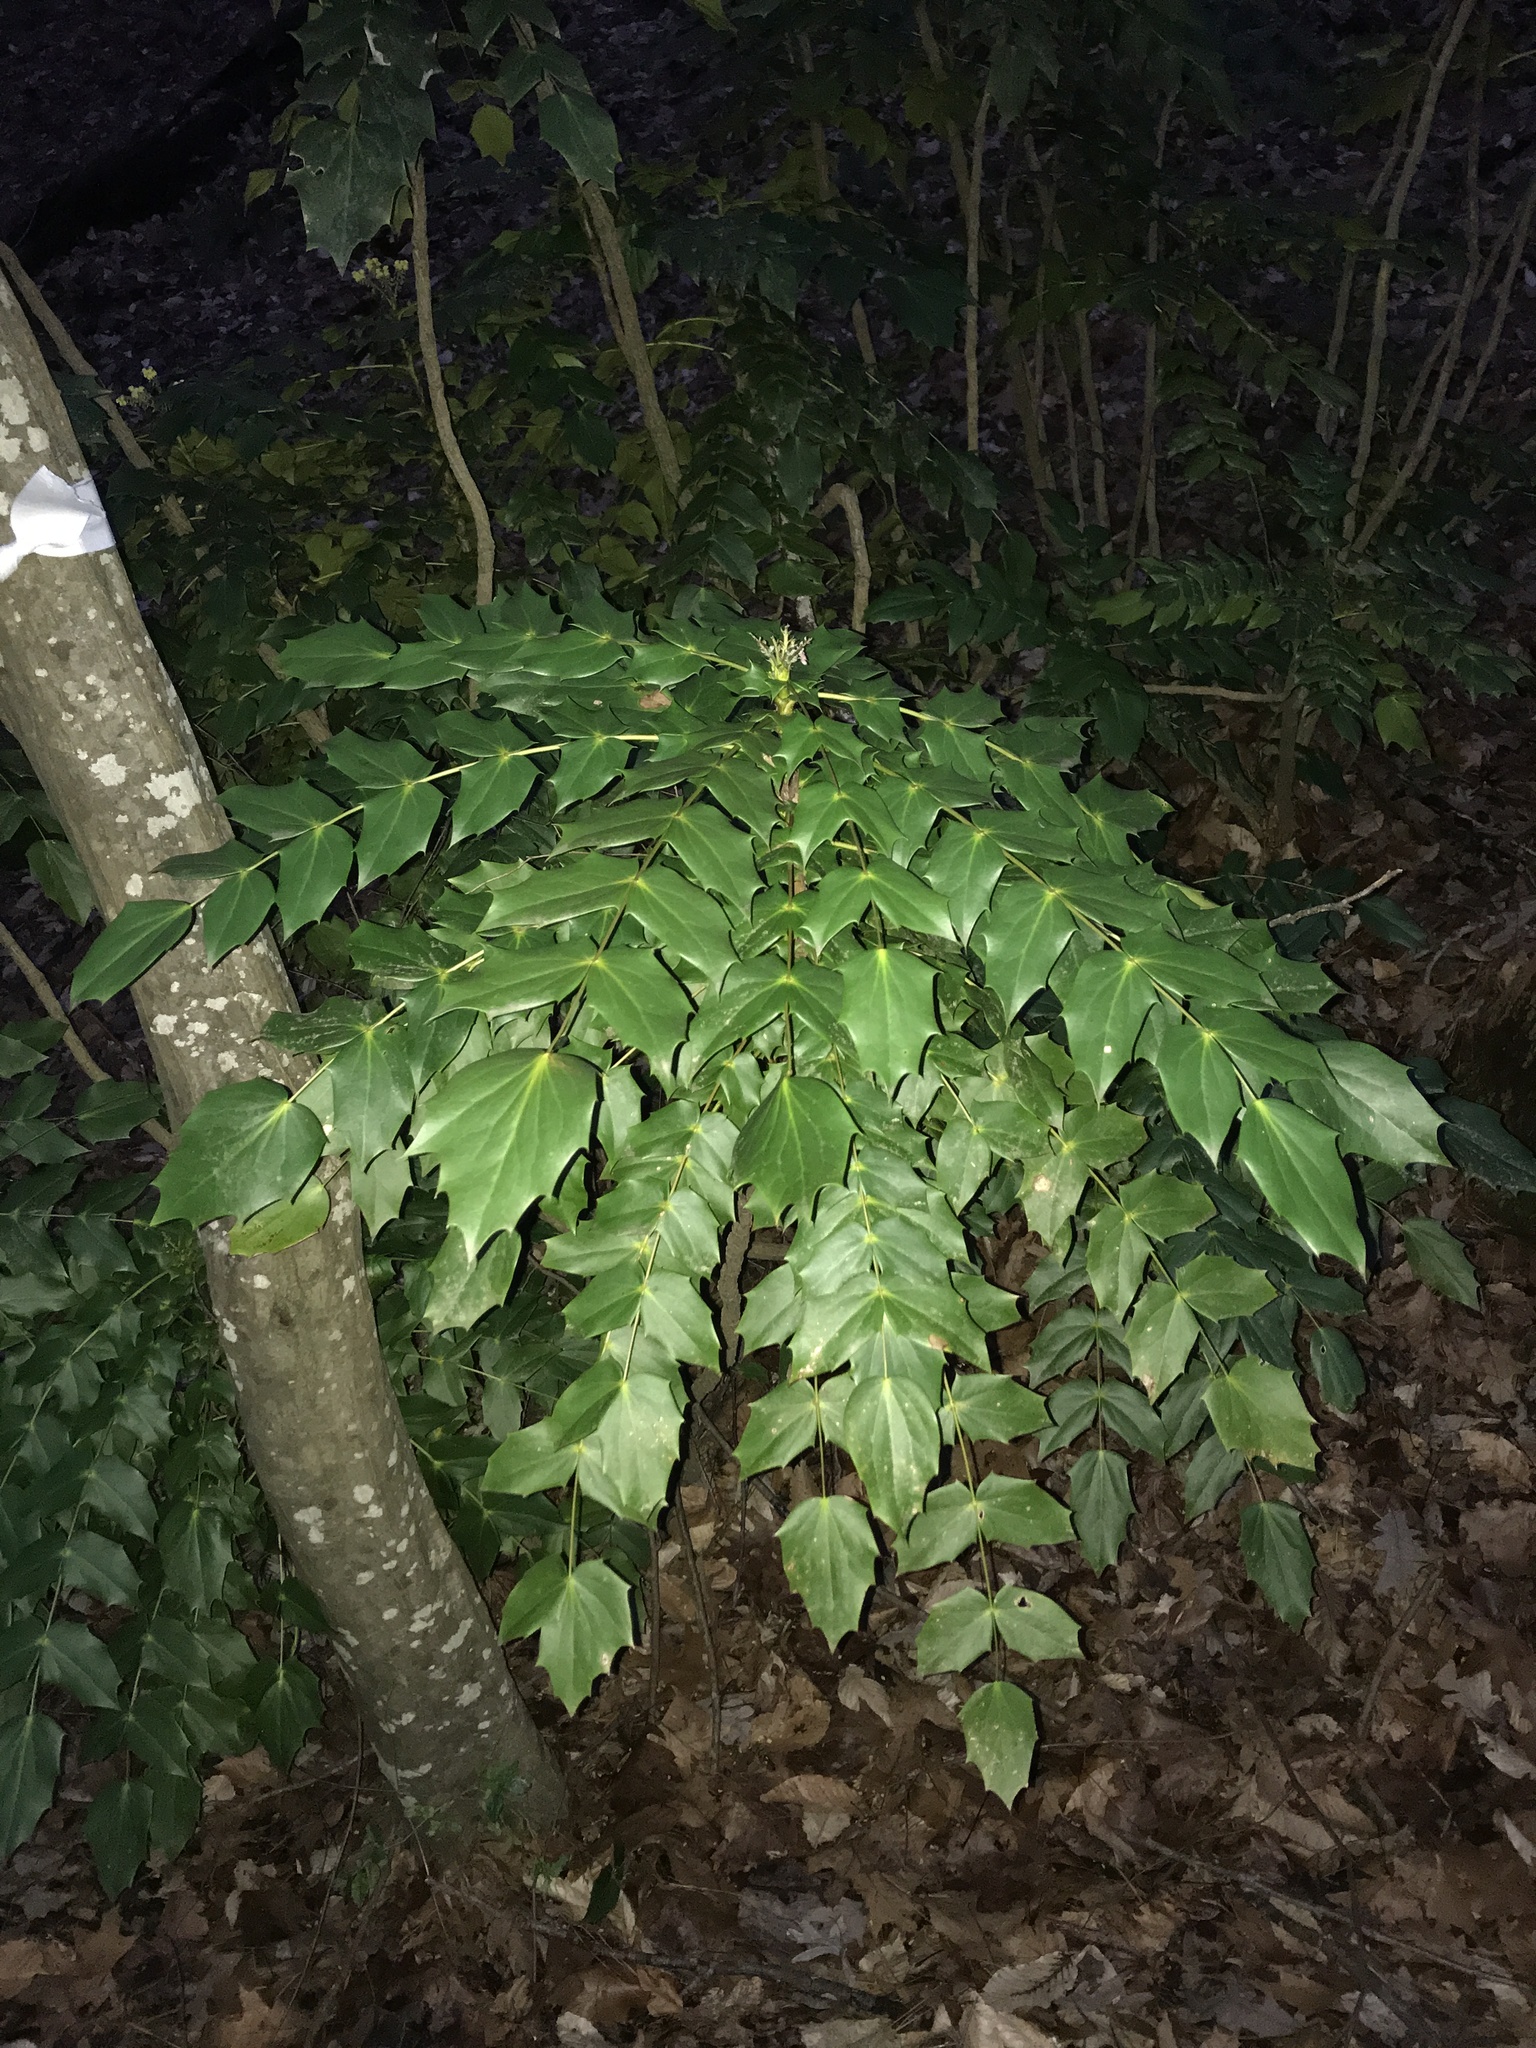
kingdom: Plantae
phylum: Tracheophyta
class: Magnoliopsida
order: Ranunculales
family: Berberidaceae
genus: Mahonia
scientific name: Mahonia bealei
